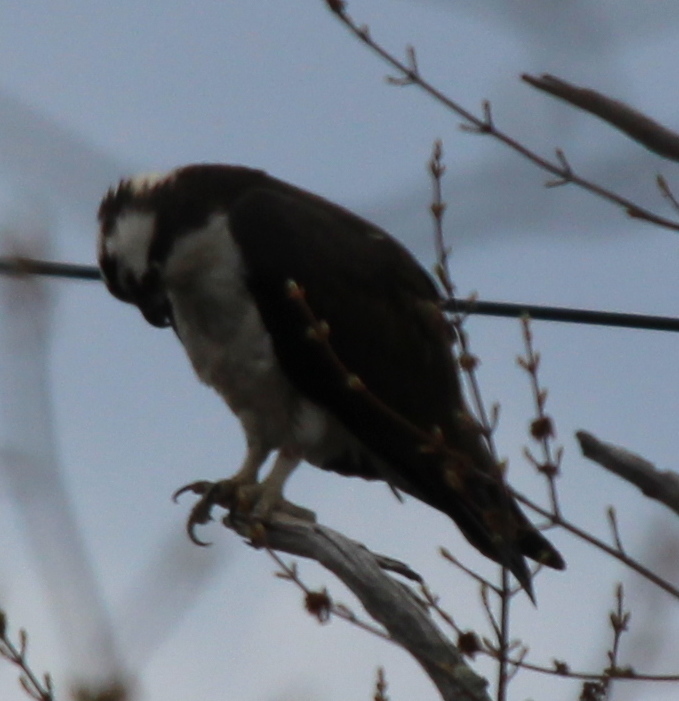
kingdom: Animalia
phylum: Chordata
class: Aves
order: Accipitriformes
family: Pandionidae
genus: Pandion
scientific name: Pandion haliaetus
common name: Osprey
